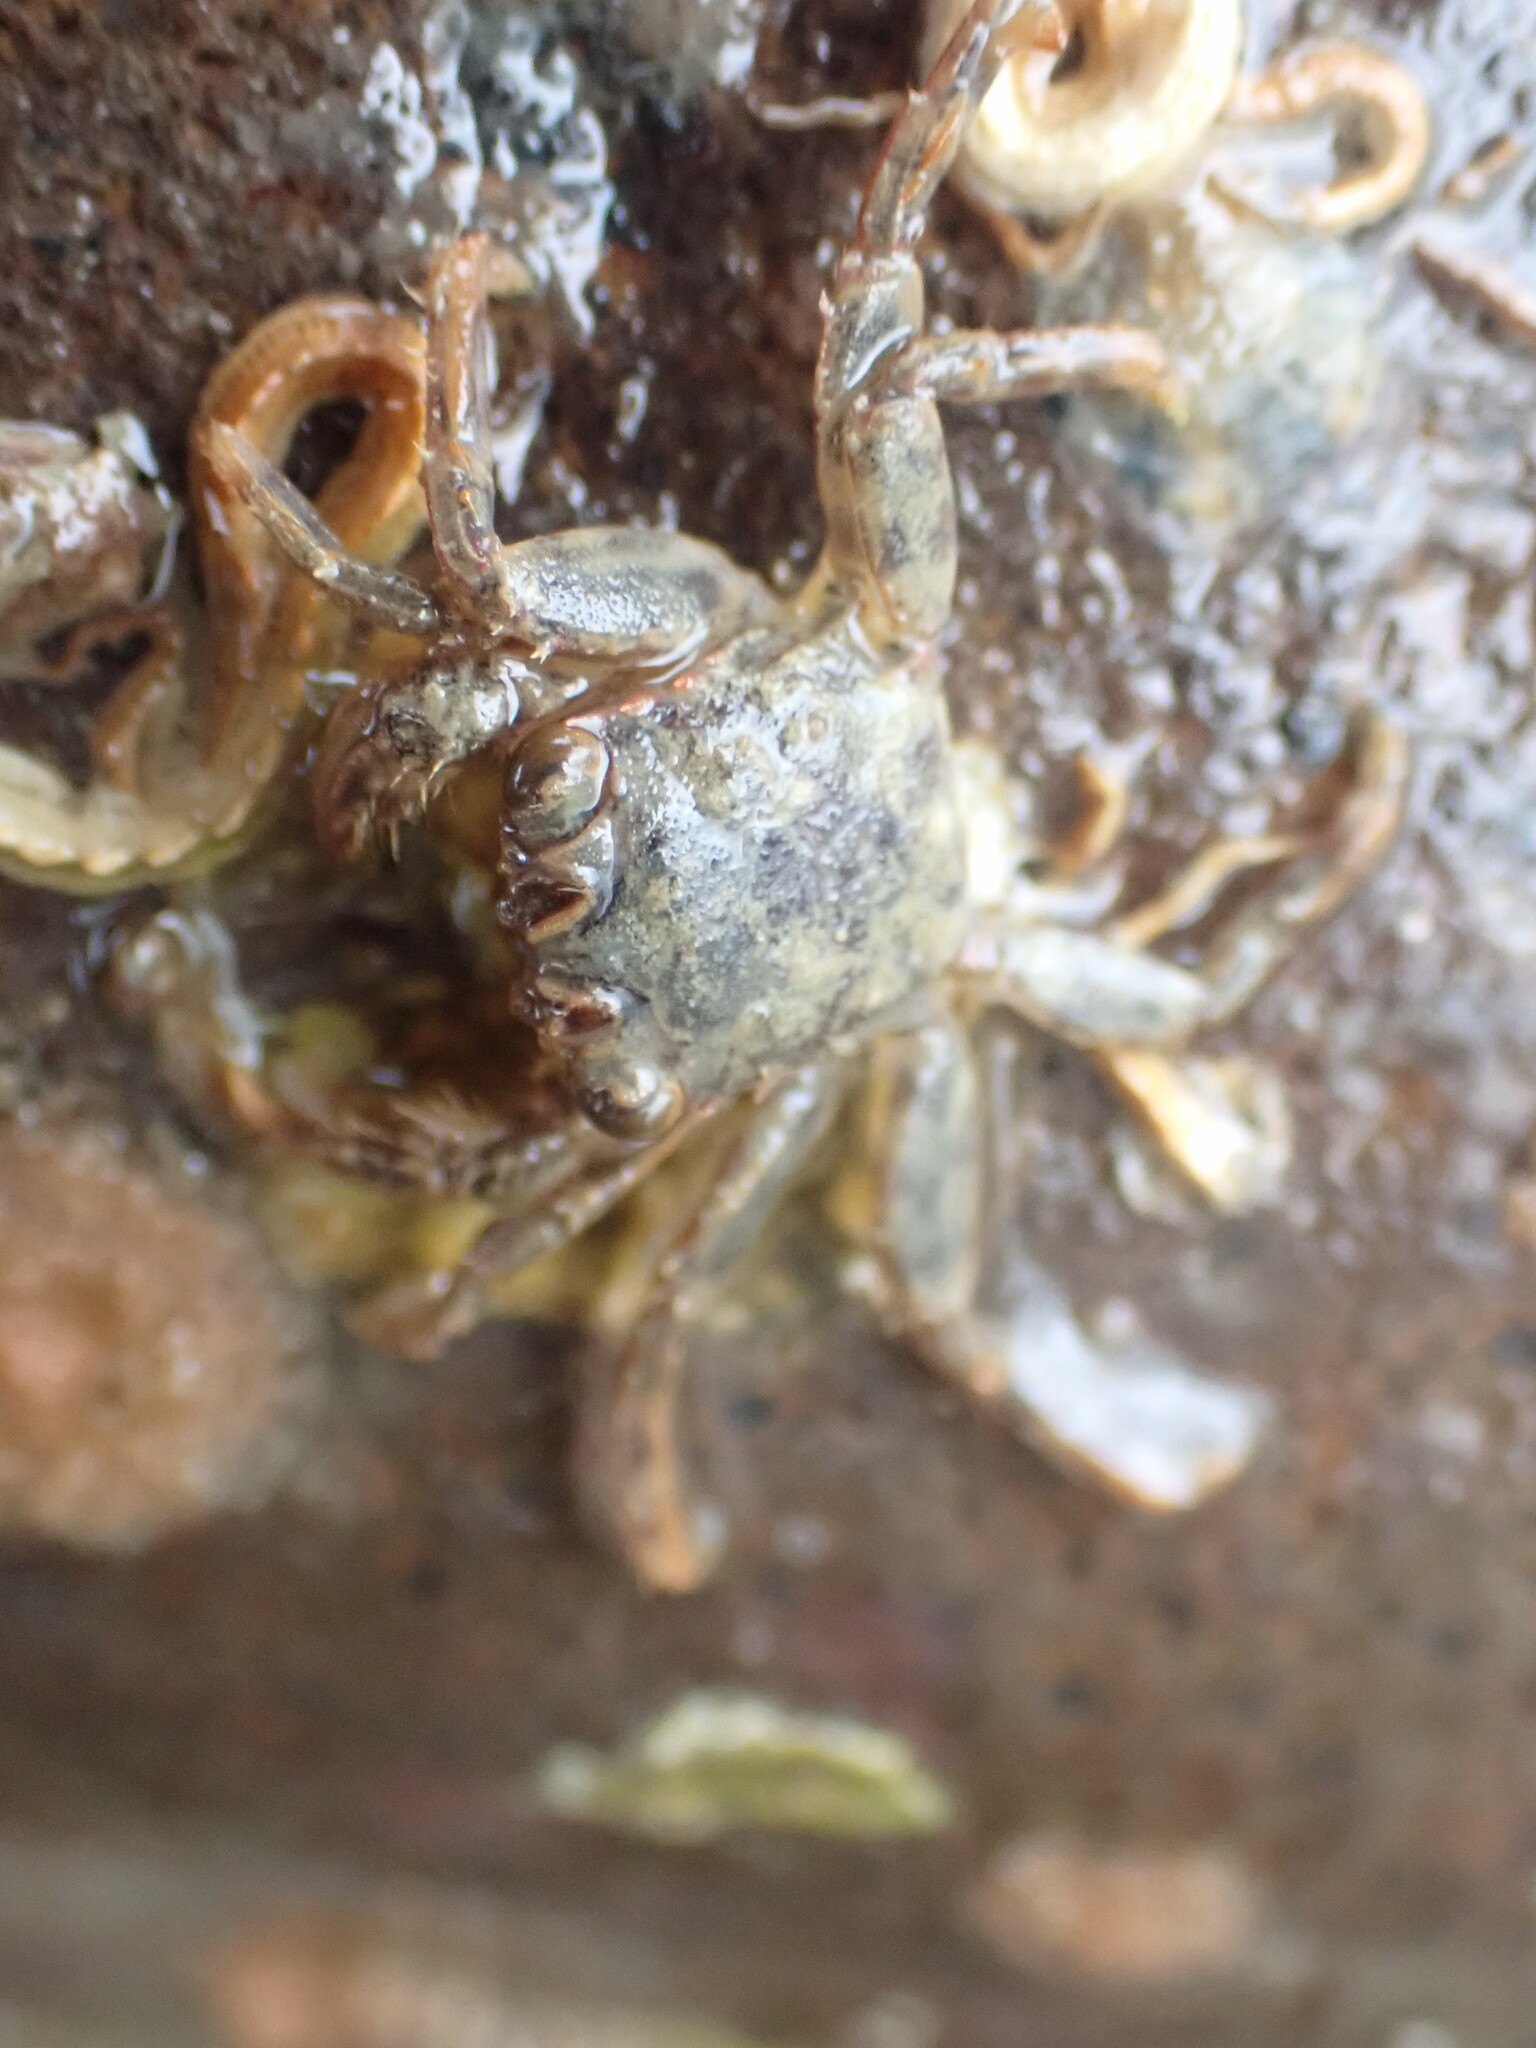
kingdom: Animalia
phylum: Arthropoda
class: Malacostraca
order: Decapoda
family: Plagusiidae
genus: Guinusia
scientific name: Guinusia chabrus
